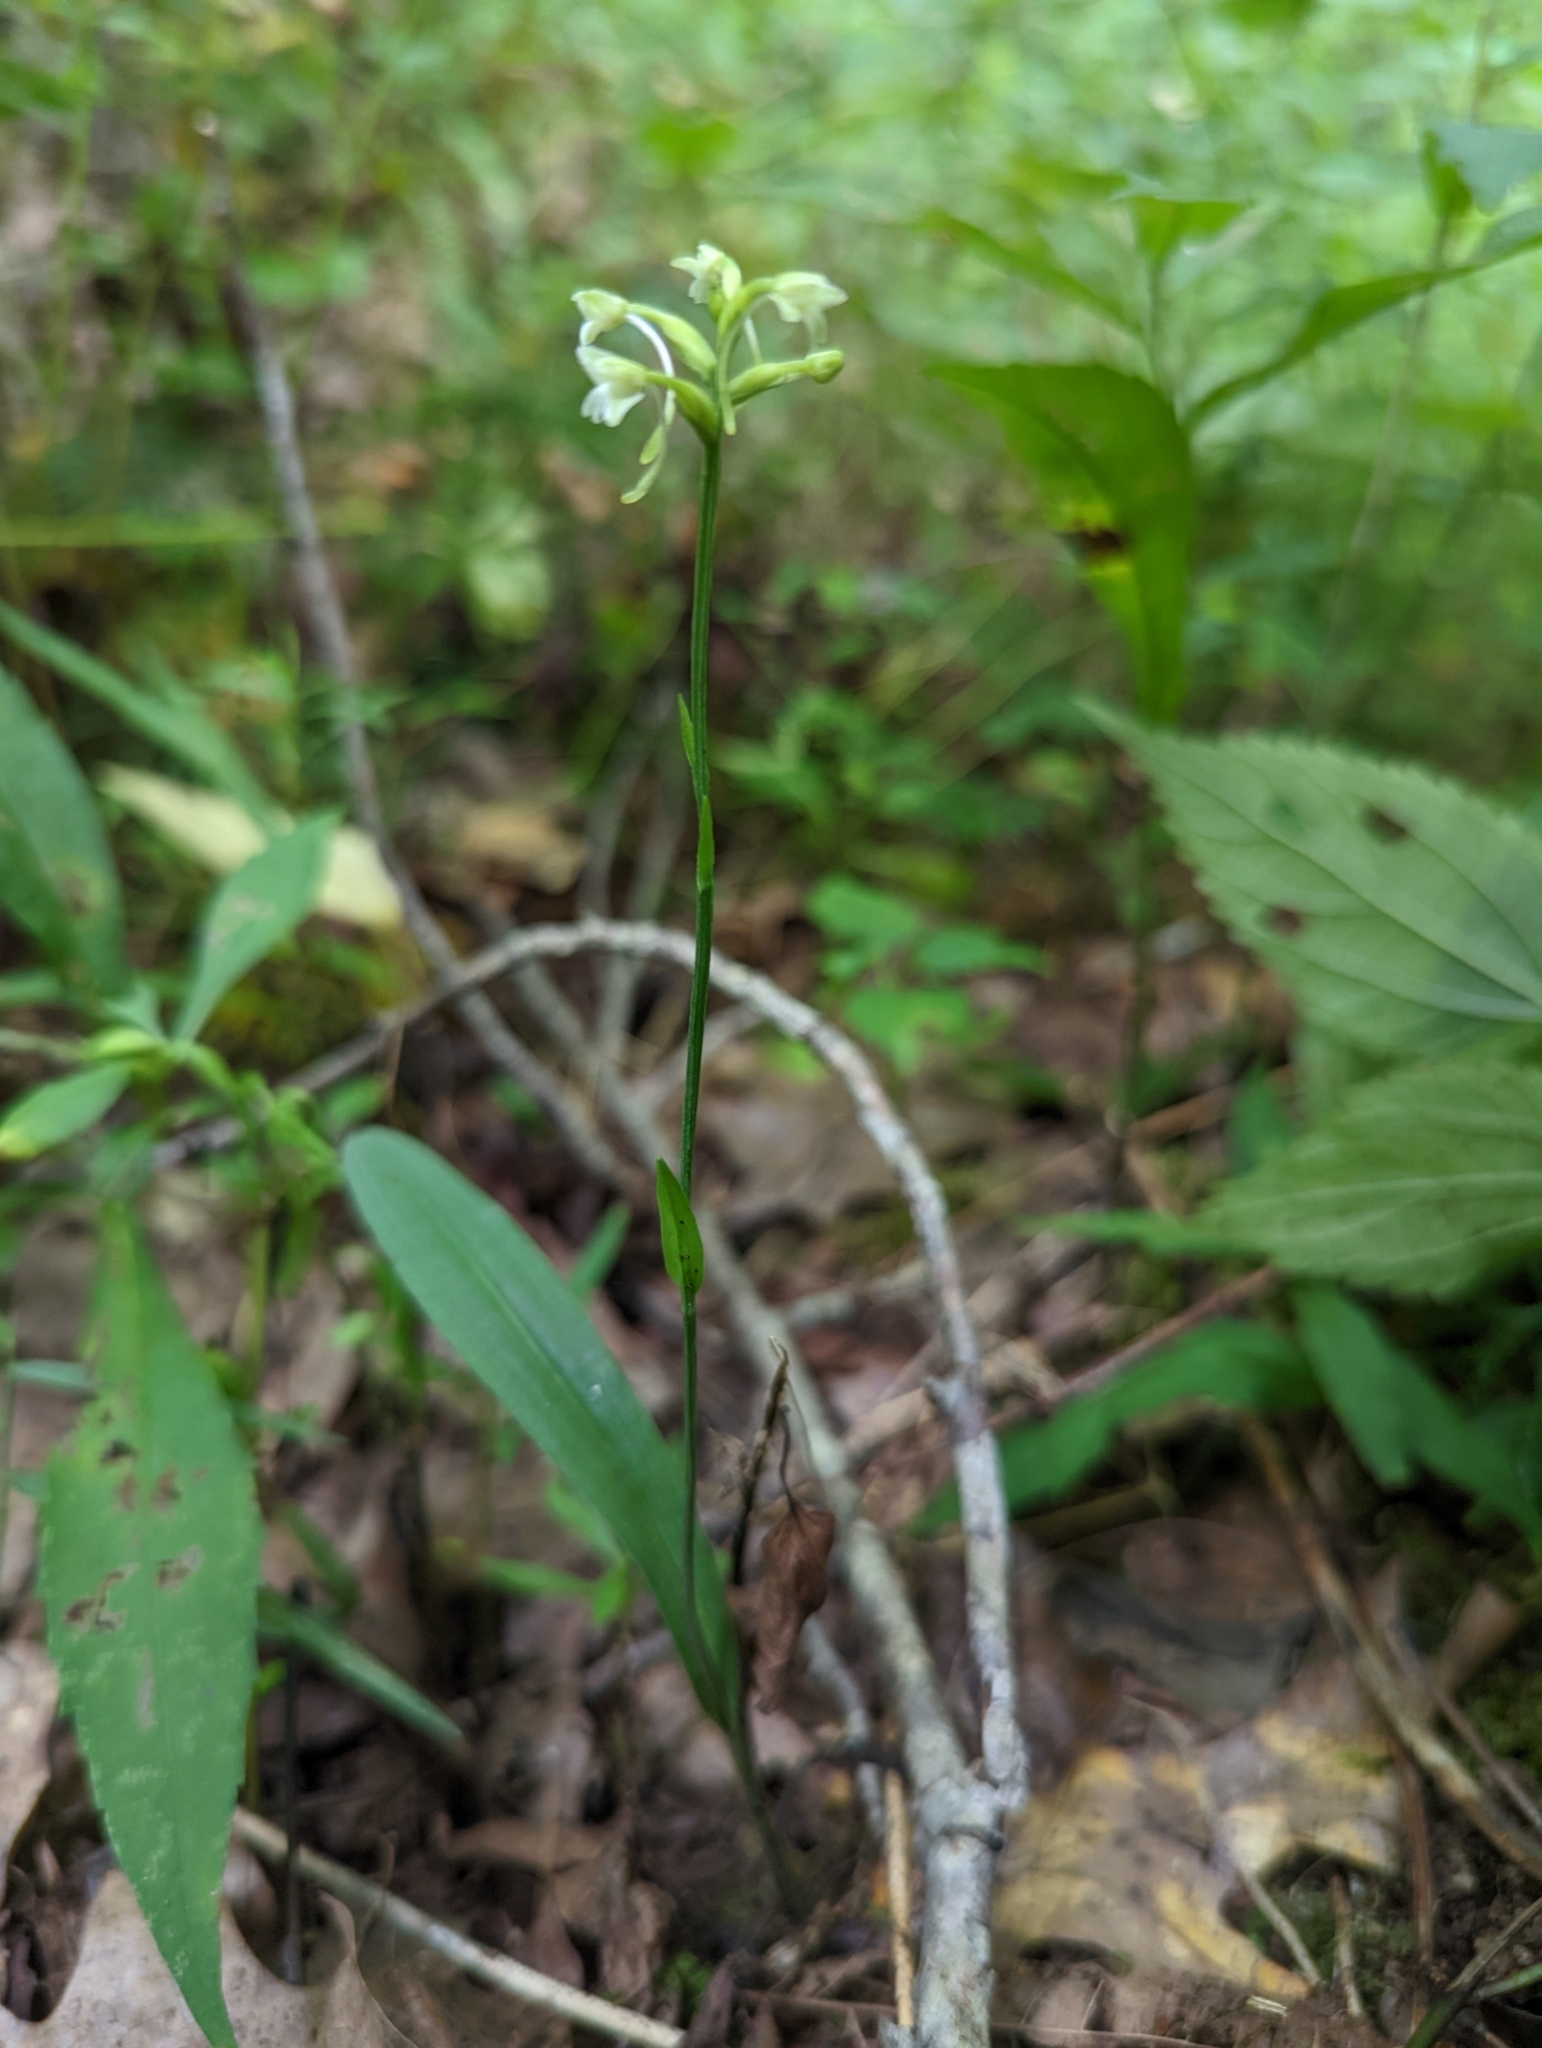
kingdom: Plantae
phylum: Tracheophyta
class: Liliopsida
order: Asparagales
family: Orchidaceae
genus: Platanthera
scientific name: Platanthera clavellata
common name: Club-spur orchid
